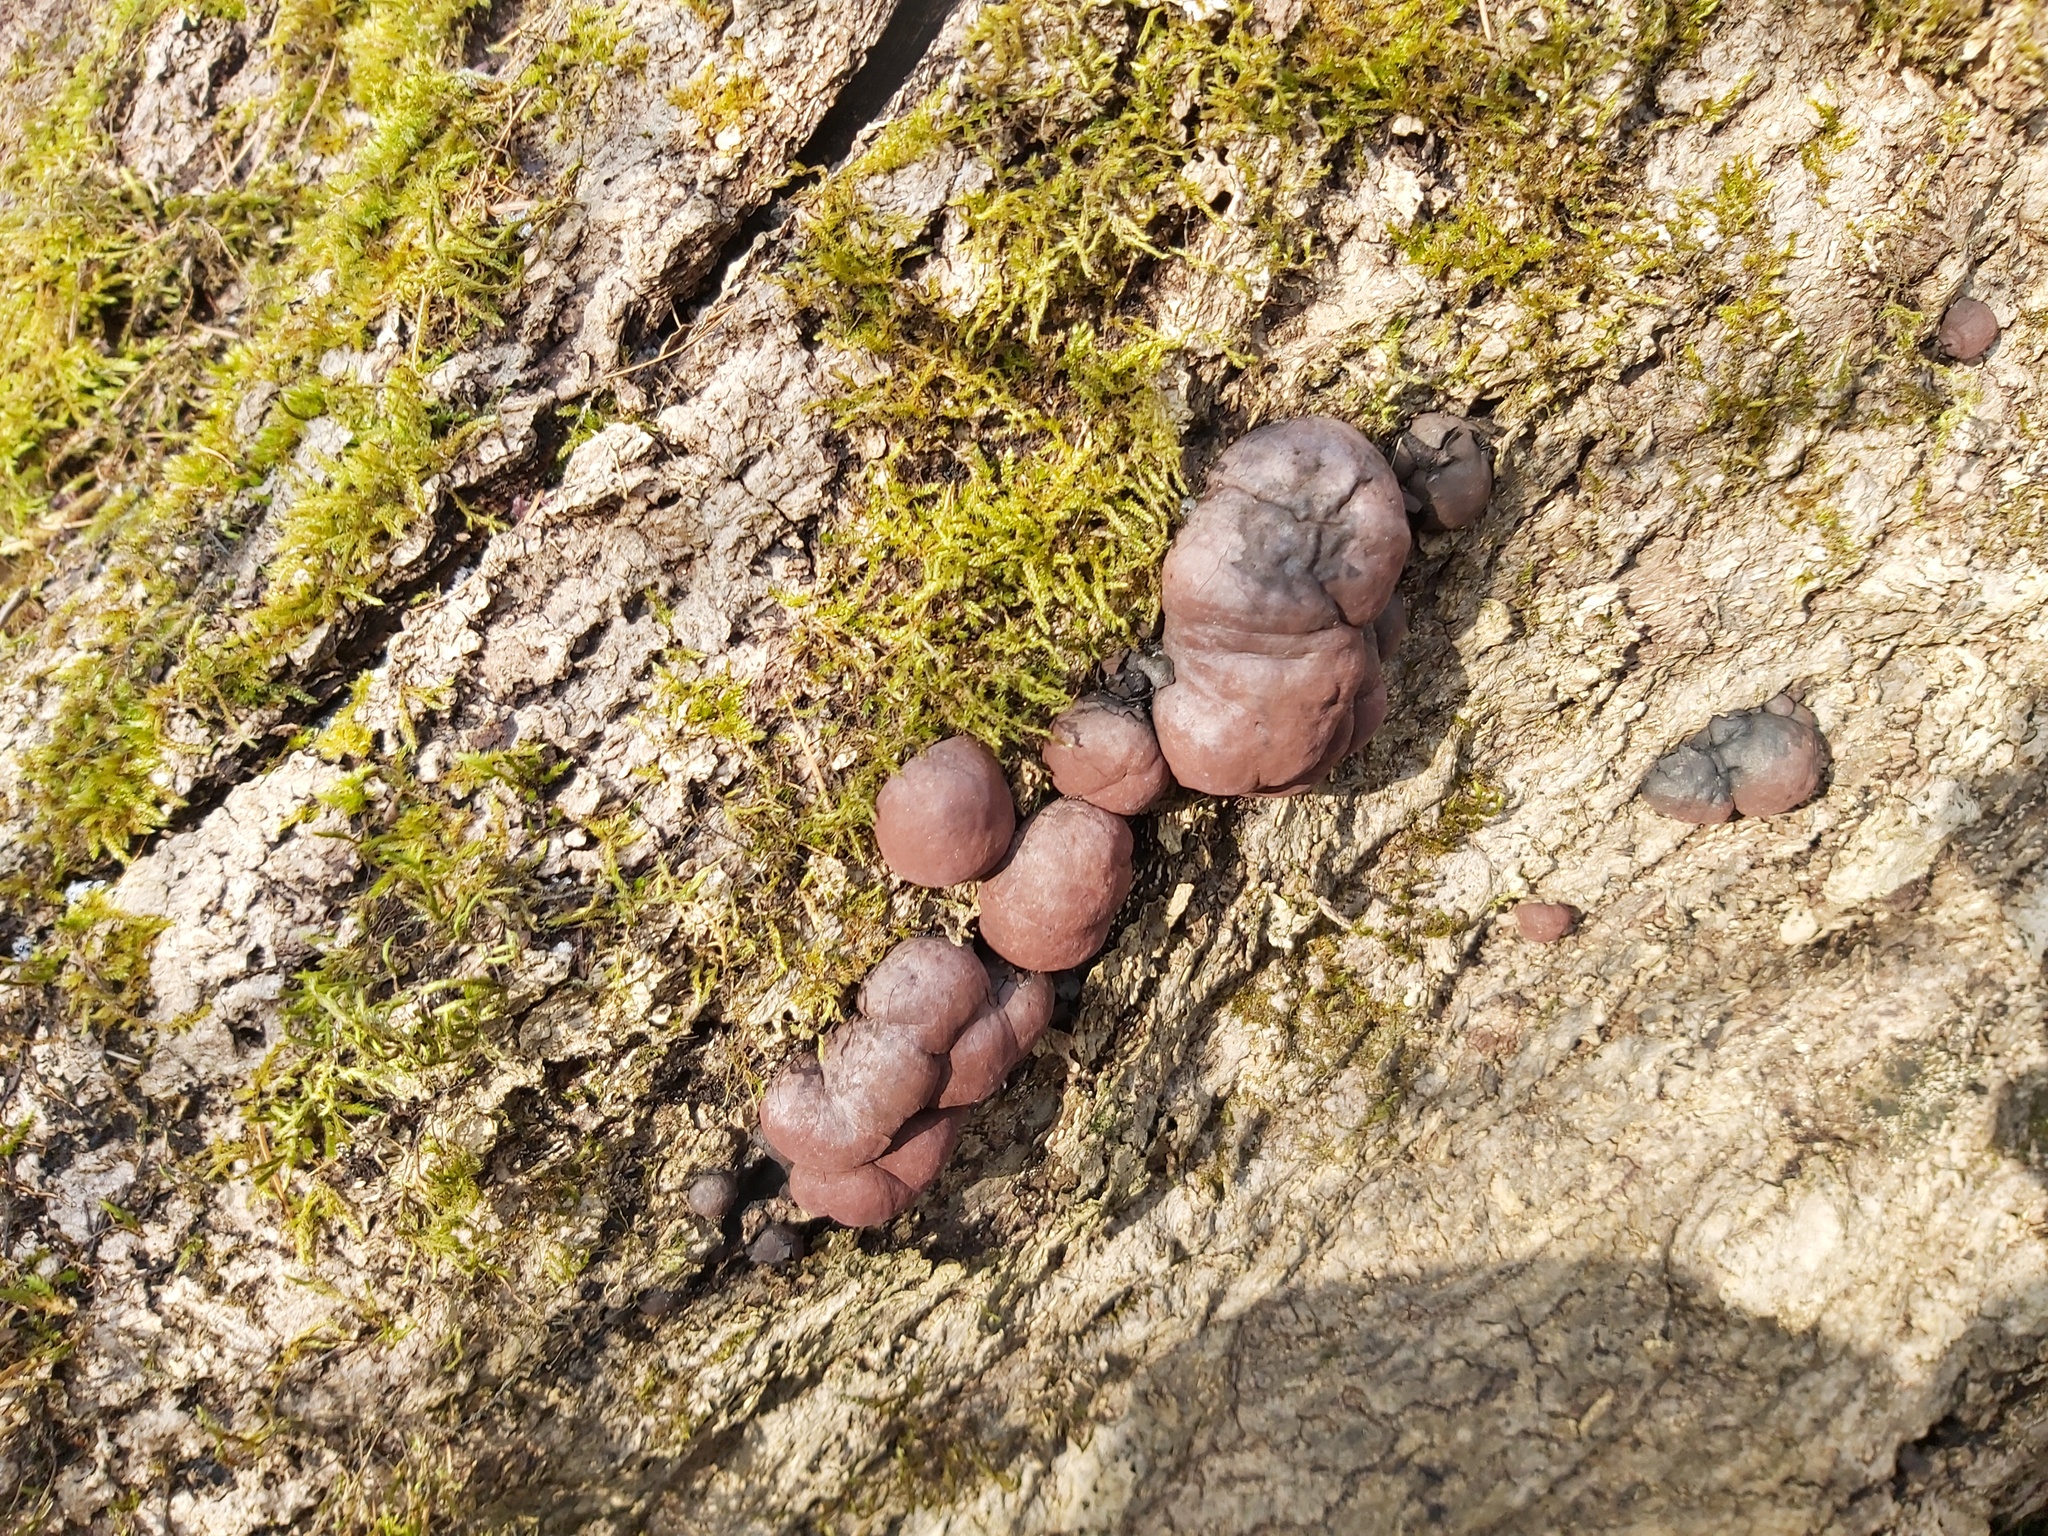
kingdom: Fungi
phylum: Ascomycota
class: Sordariomycetes
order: Xylariales
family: Hypoxylaceae
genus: Daldinia
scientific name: Daldinia concentrica
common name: Cramp balls
